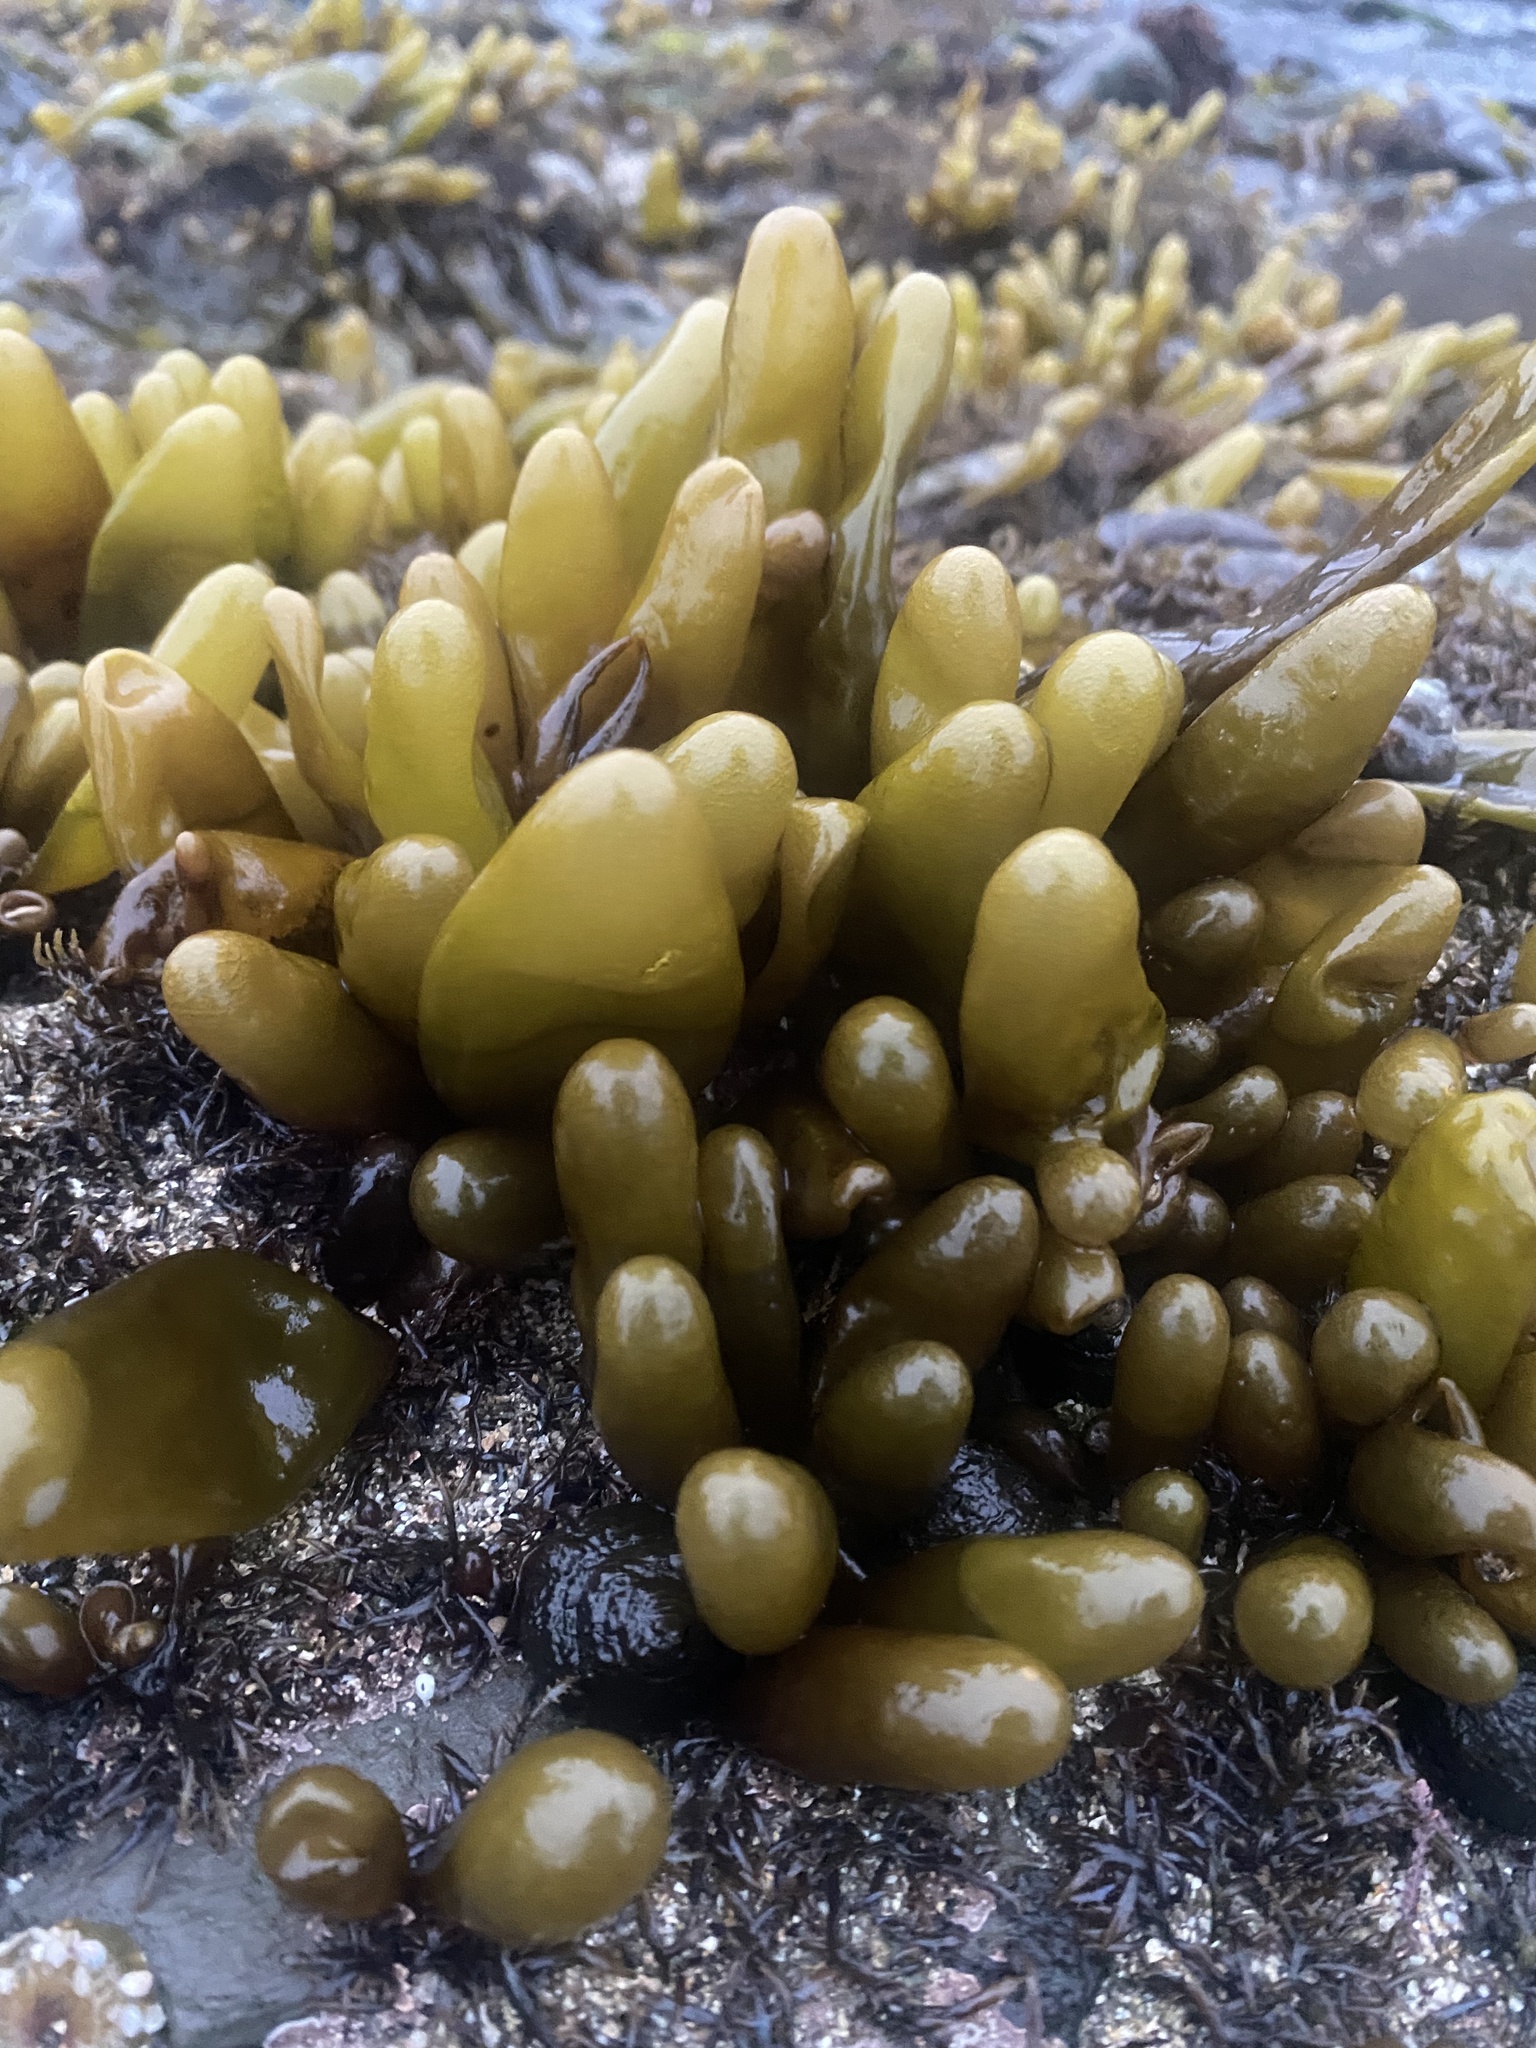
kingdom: Plantae
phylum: Rhodophyta
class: Florideophyceae
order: Palmariales
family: Palmariaceae
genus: Halosaccion
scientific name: Halosaccion glandiforme
